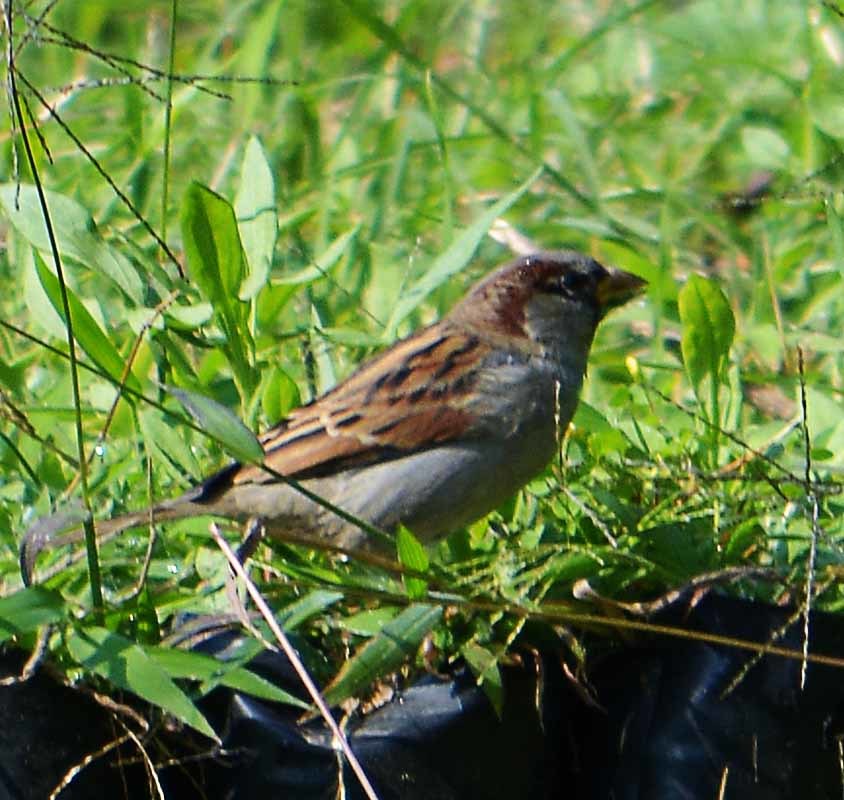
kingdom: Animalia
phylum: Chordata
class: Aves
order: Passeriformes
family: Passeridae
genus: Passer
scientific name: Passer domesticus
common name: House sparrow
